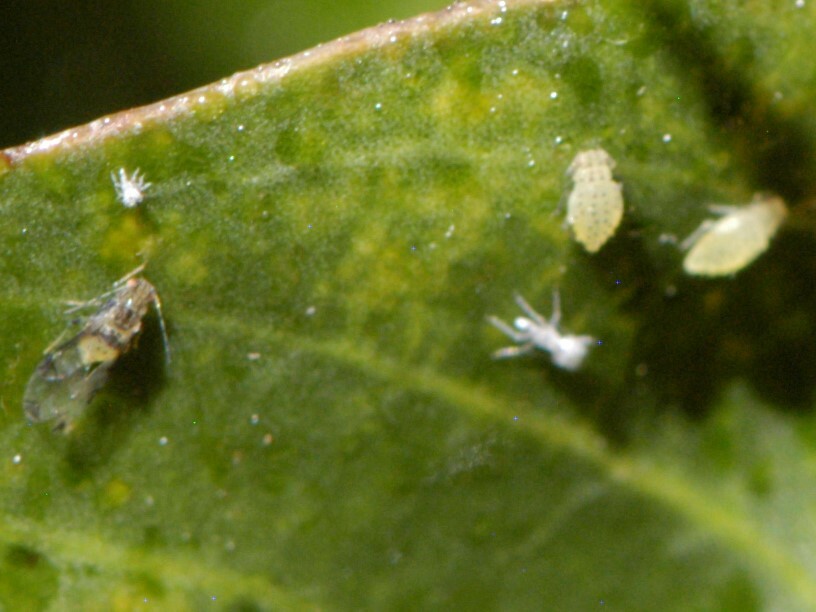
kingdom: Animalia
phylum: Arthropoda
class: Insecta
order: Hemiptera
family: Aphididae
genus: Sarucallis
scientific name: Sarucallis kahawaluokalani
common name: Crapemyrtle aphid
